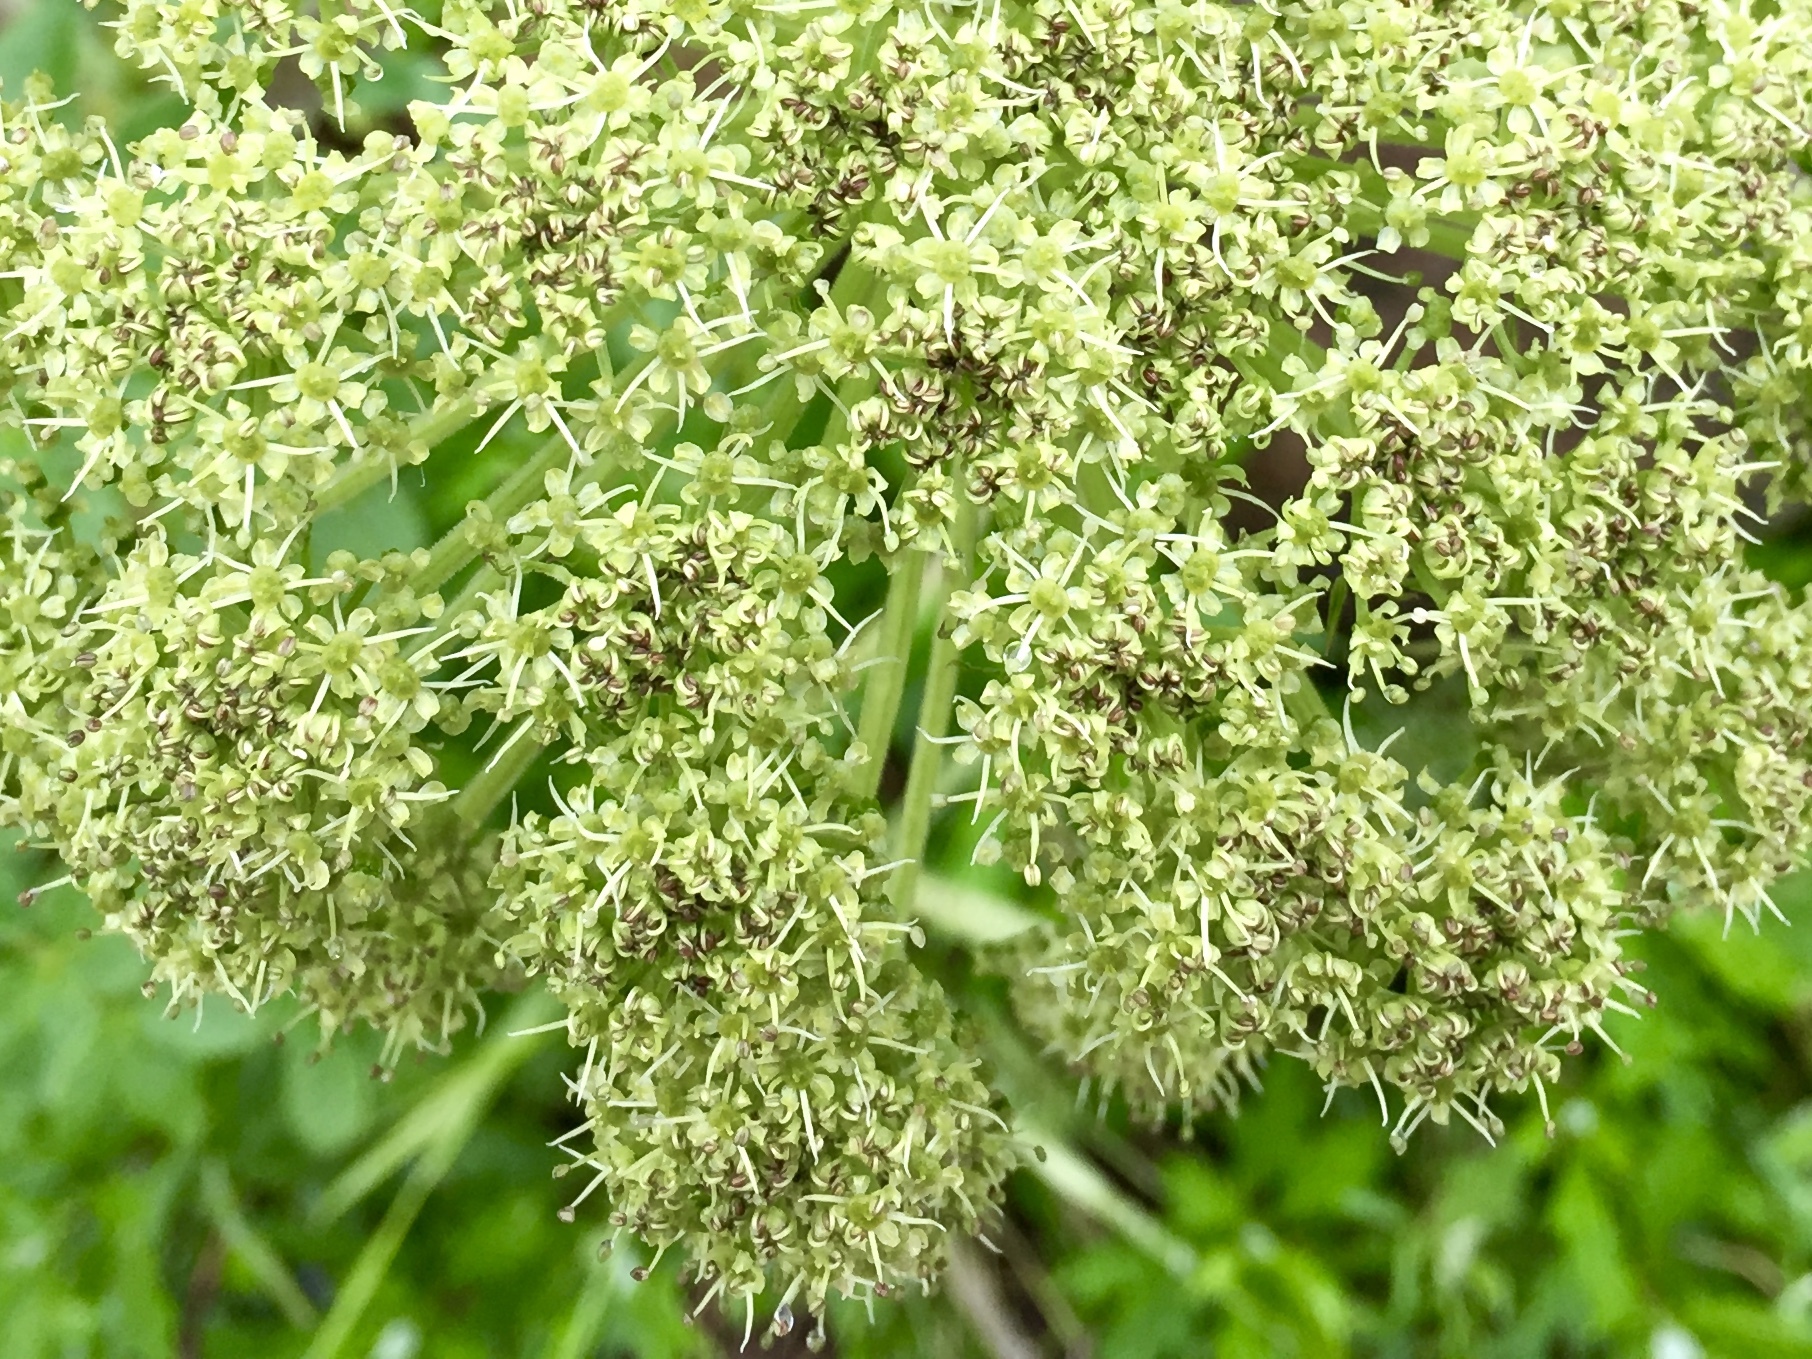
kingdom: Plantae
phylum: Tracheophyta
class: Magnoliopsida
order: Apiales
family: Apiaceae
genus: Angelica
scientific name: Angelica lucida
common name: Seabeach angelica
